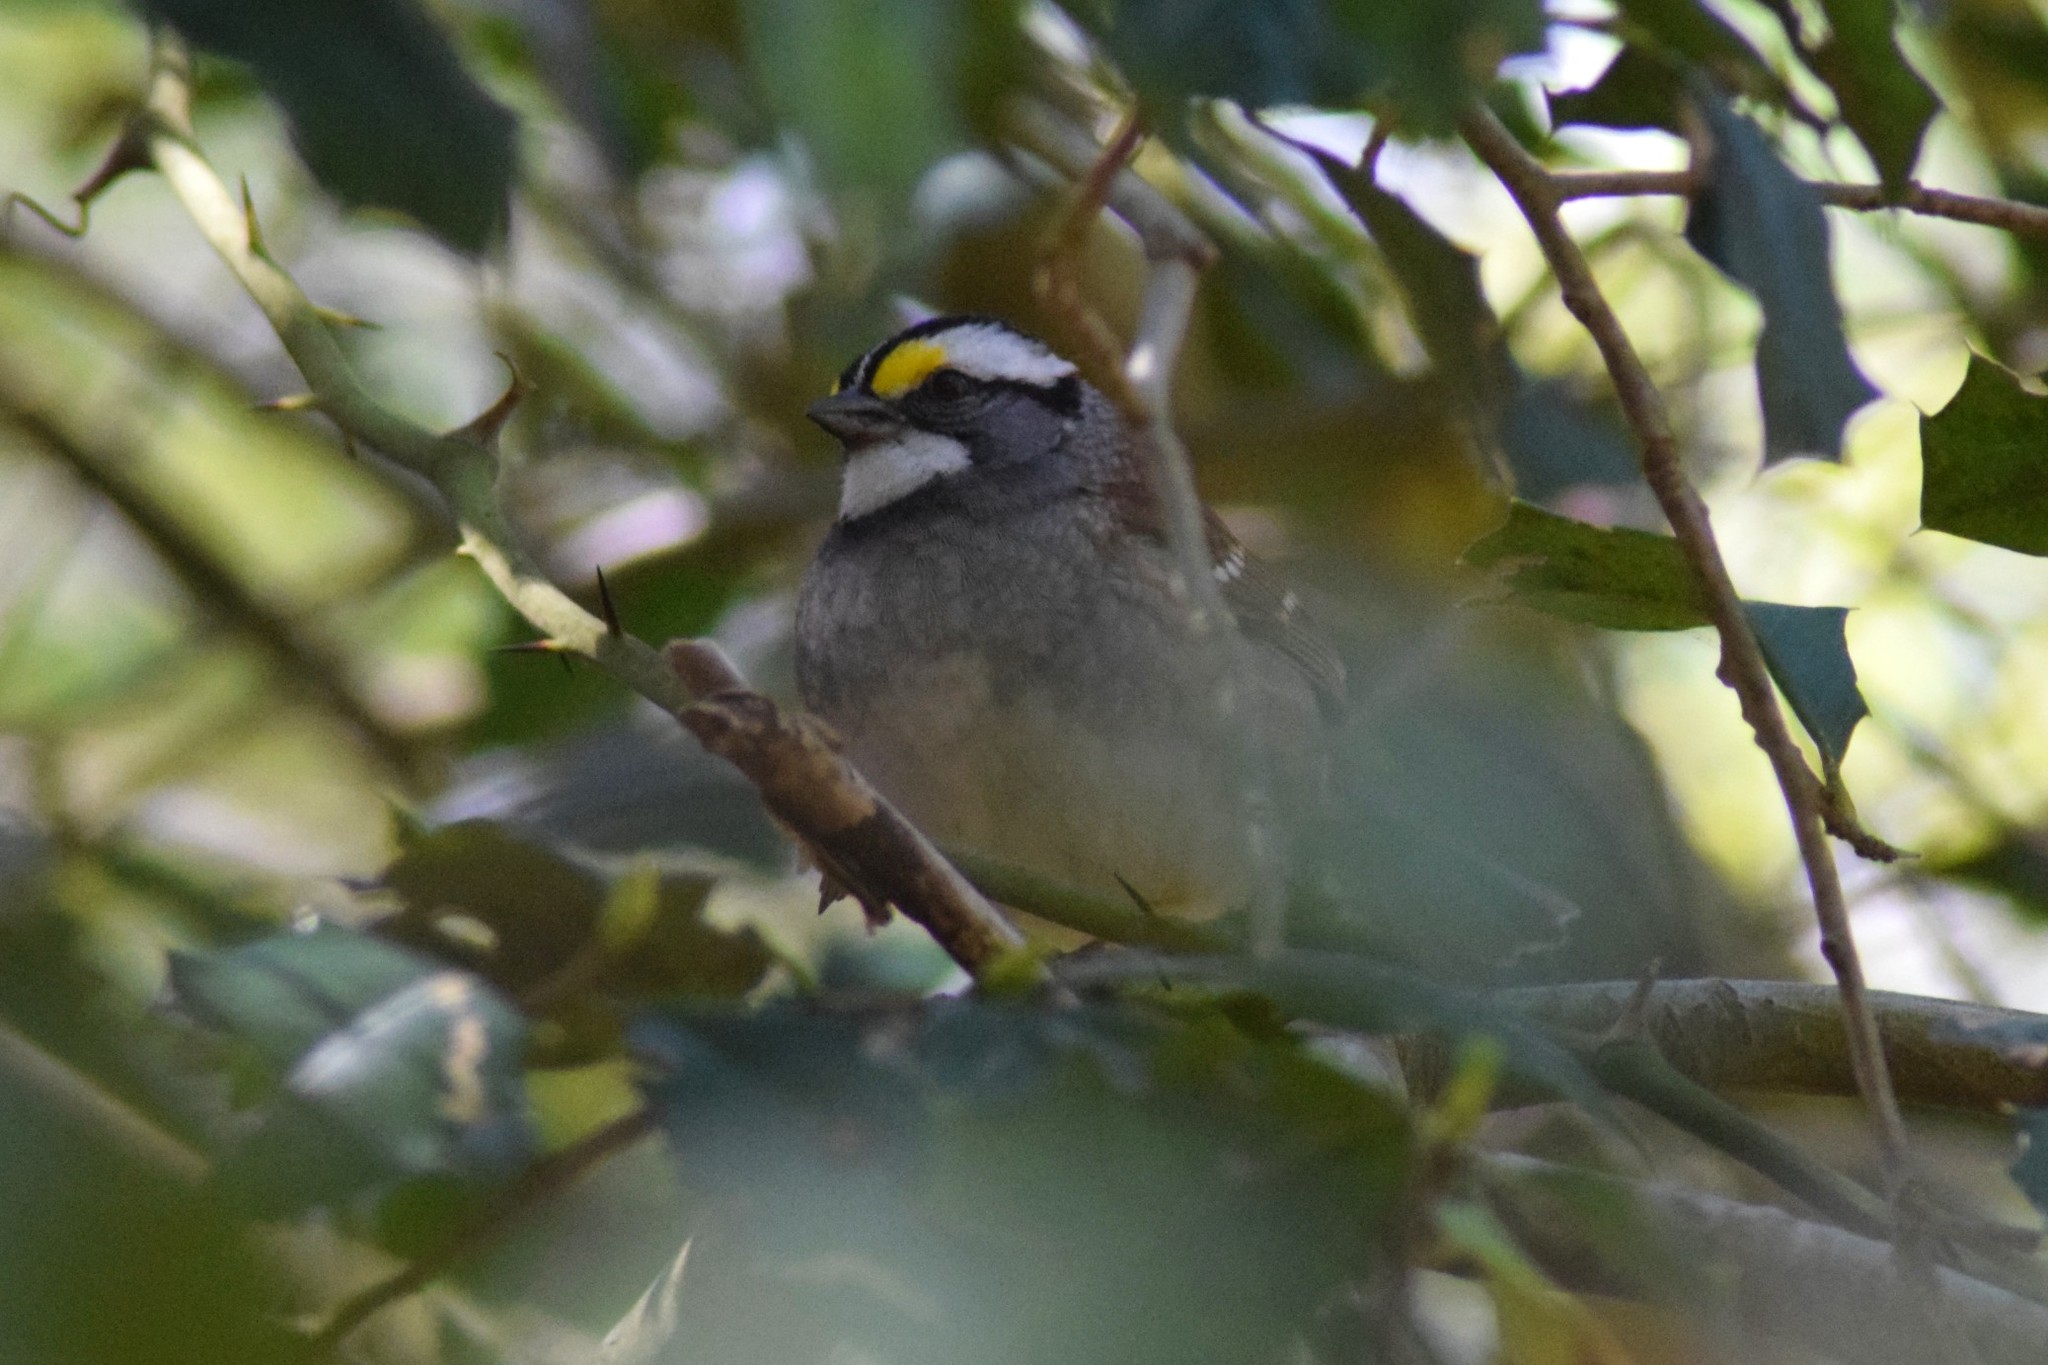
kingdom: Animalia
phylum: Chordata
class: Aves
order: Passeriformes
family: Passerellidae
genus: Zonotrichia
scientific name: Zonotrichia albicollis
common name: White-throated sparrow
